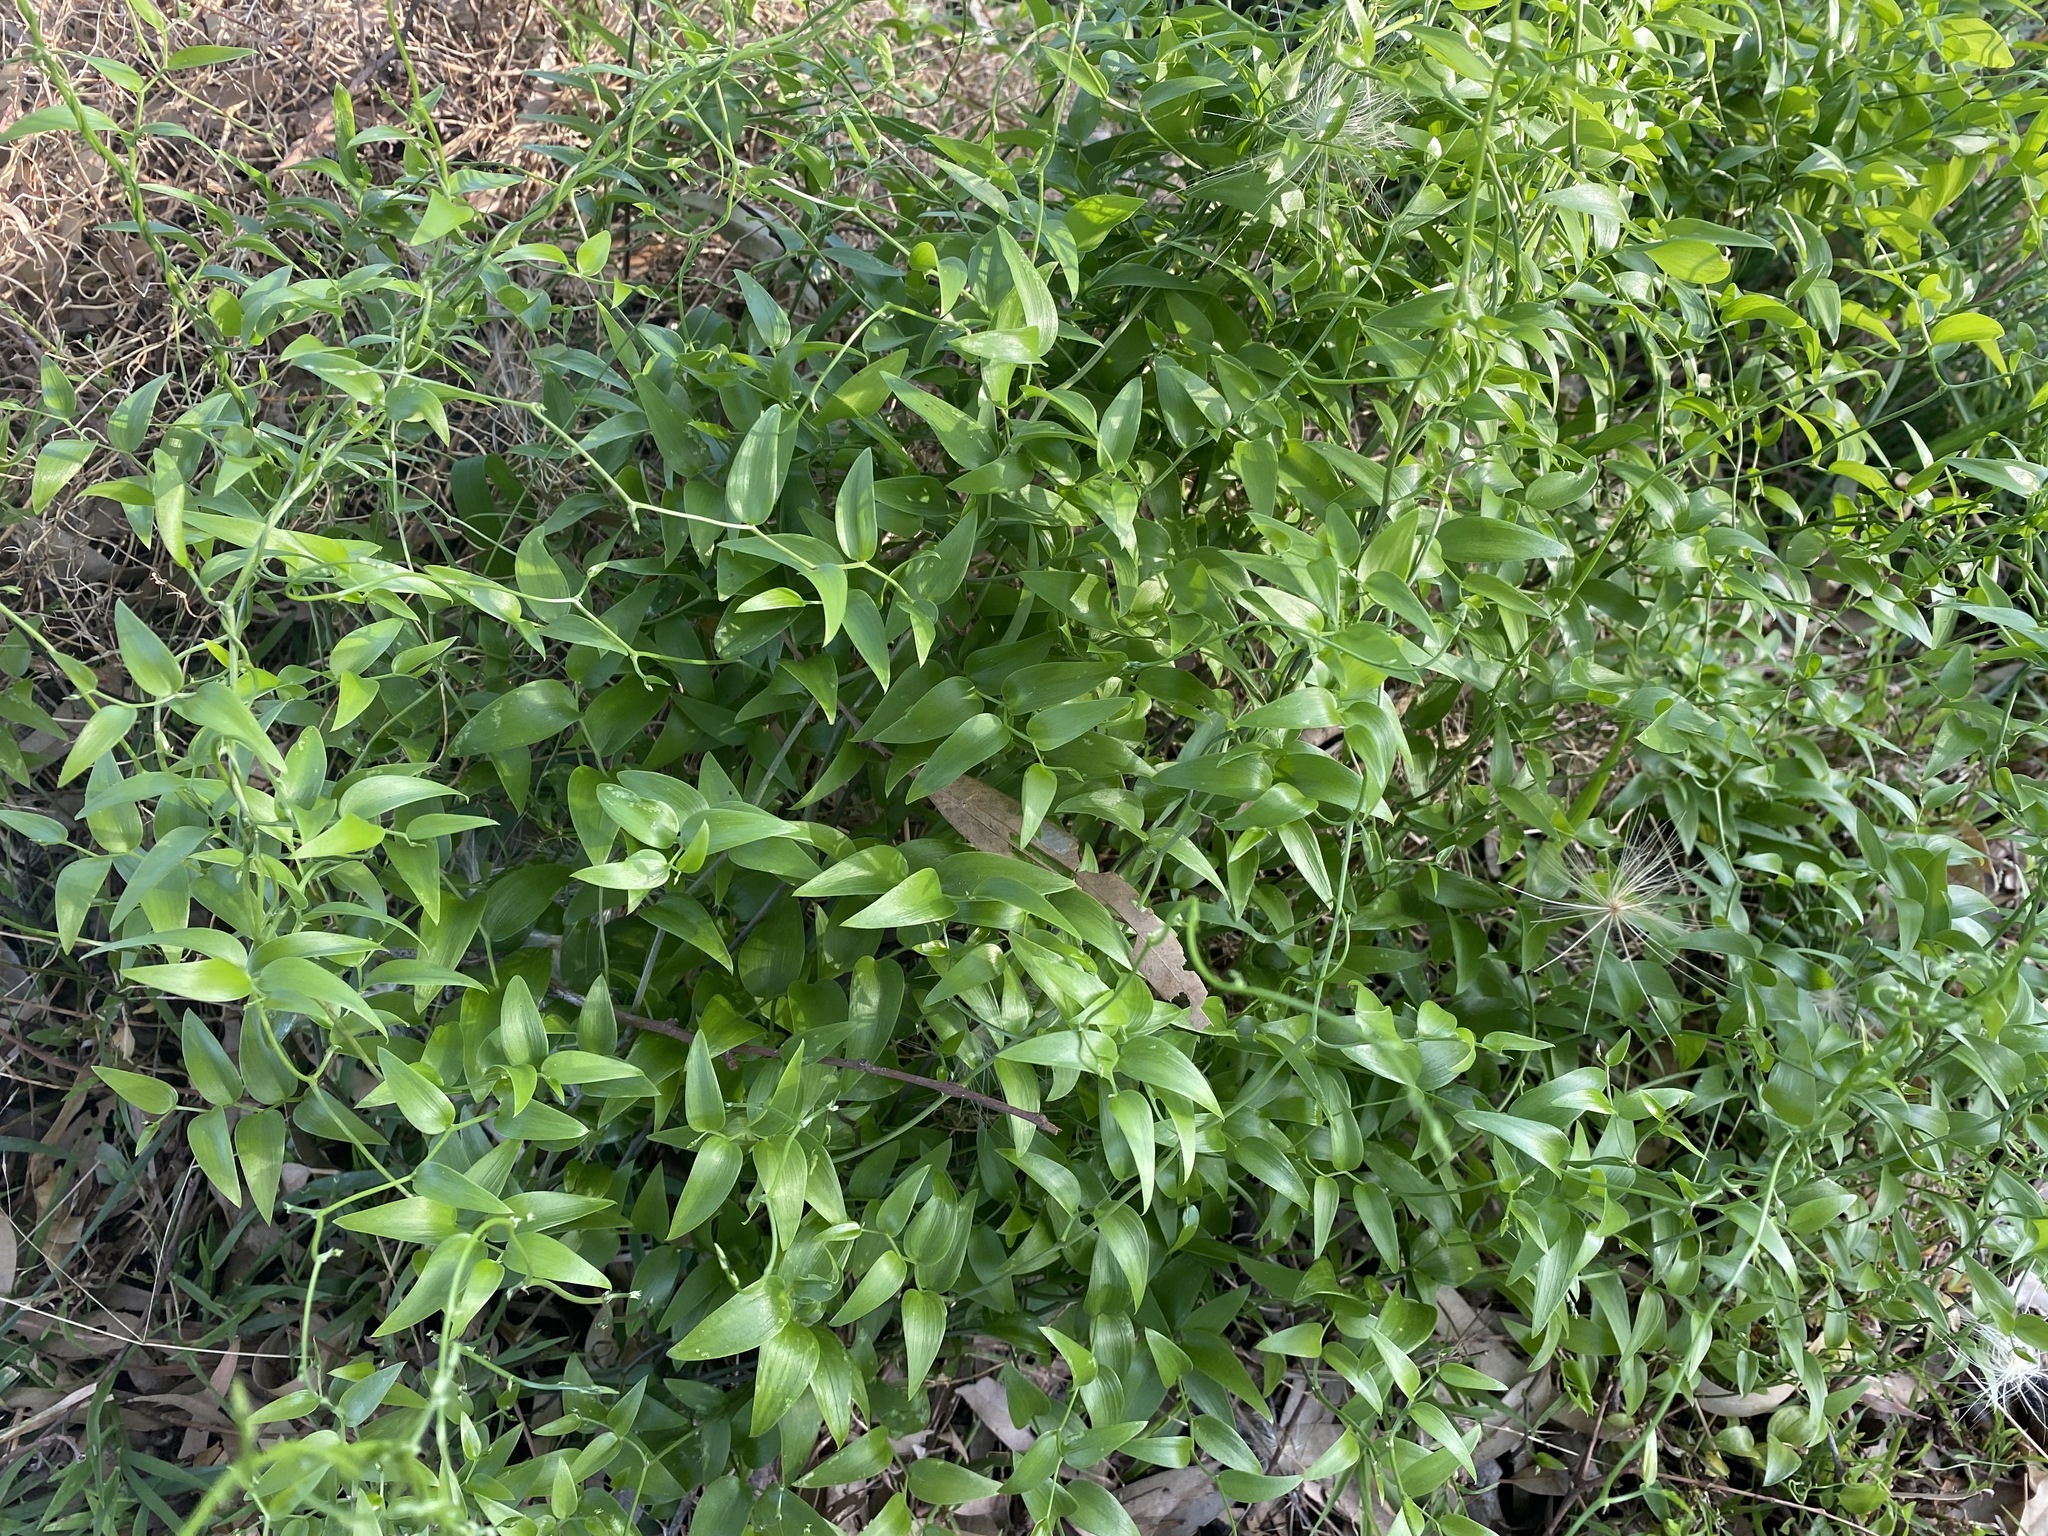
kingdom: Plantae
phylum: Tracheophyta
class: Liliopsida
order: Asparagales
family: Asparagaceae
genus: Asparagus
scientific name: Asparagus asparagoides
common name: African asparagus fern
